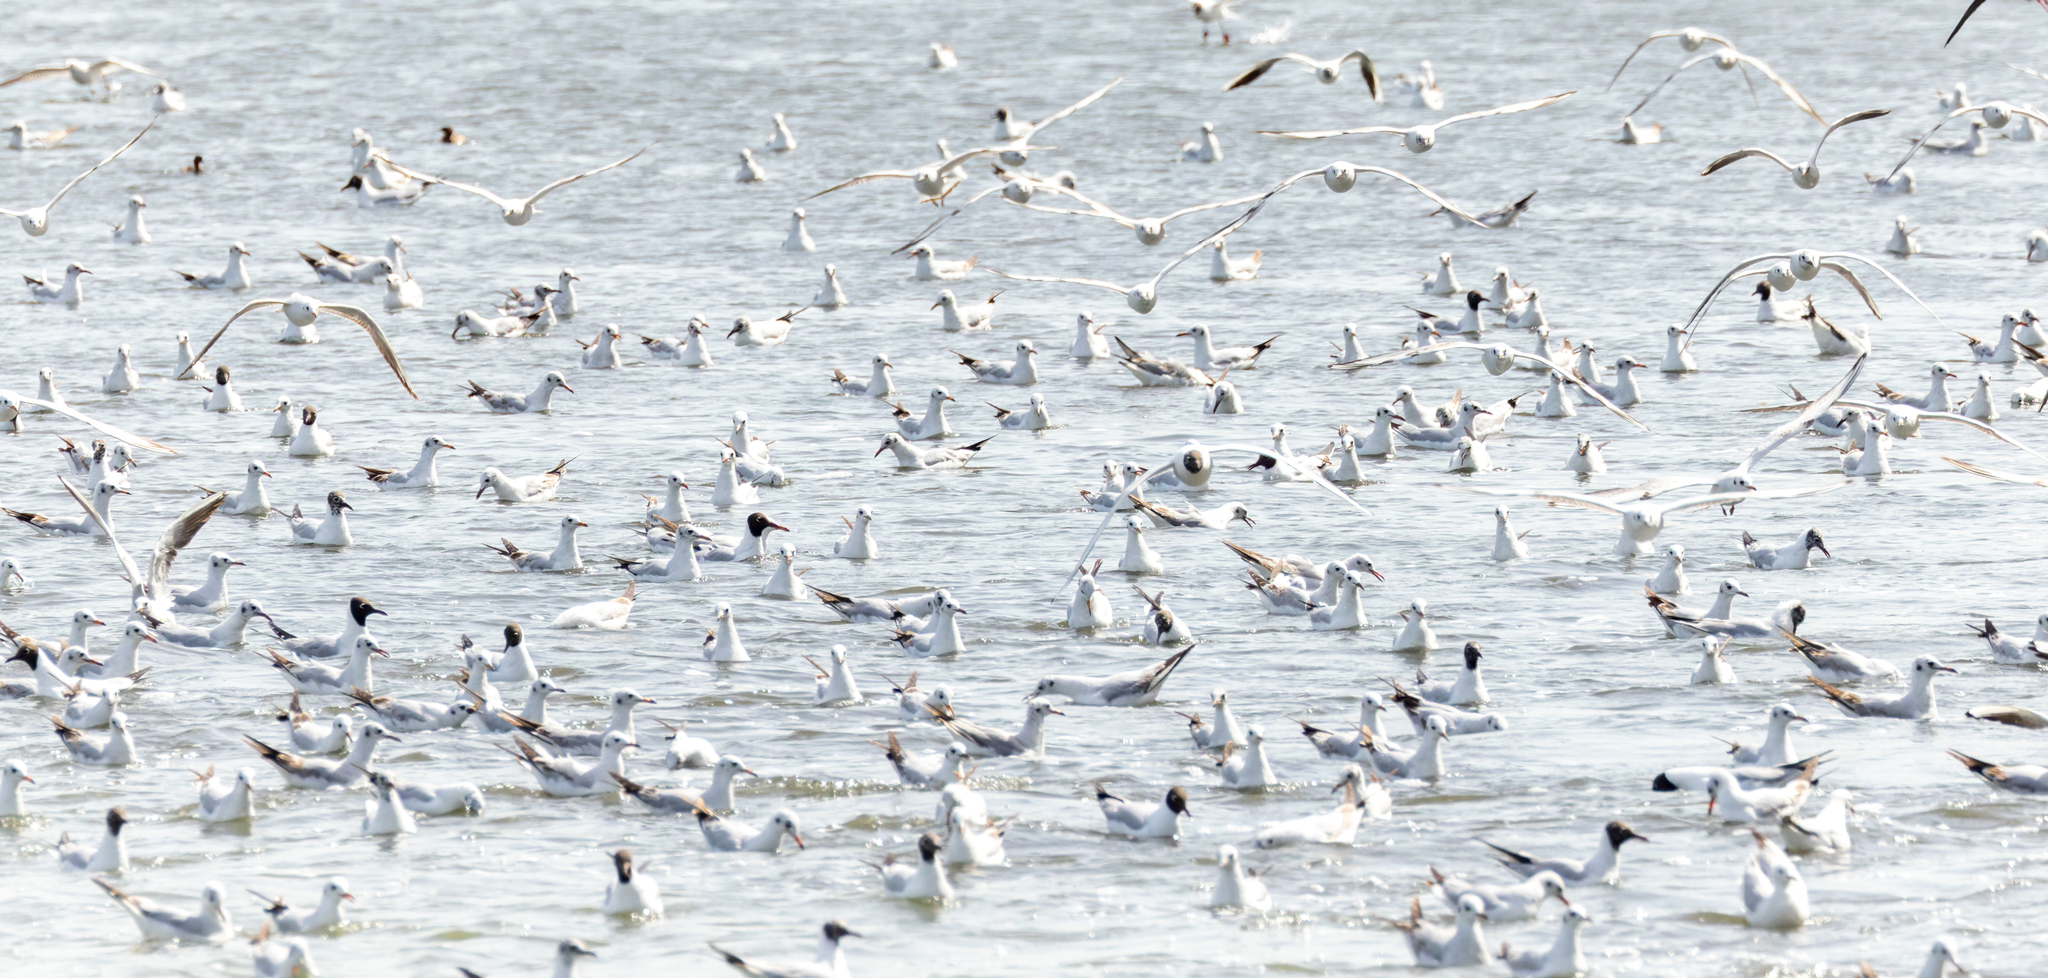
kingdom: Animalia
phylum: Chordata
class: Aves
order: Charadriiformes
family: Laridae
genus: Chroicocephalus
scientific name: Chroicocephalus ridibundus
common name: Black-headed gull
